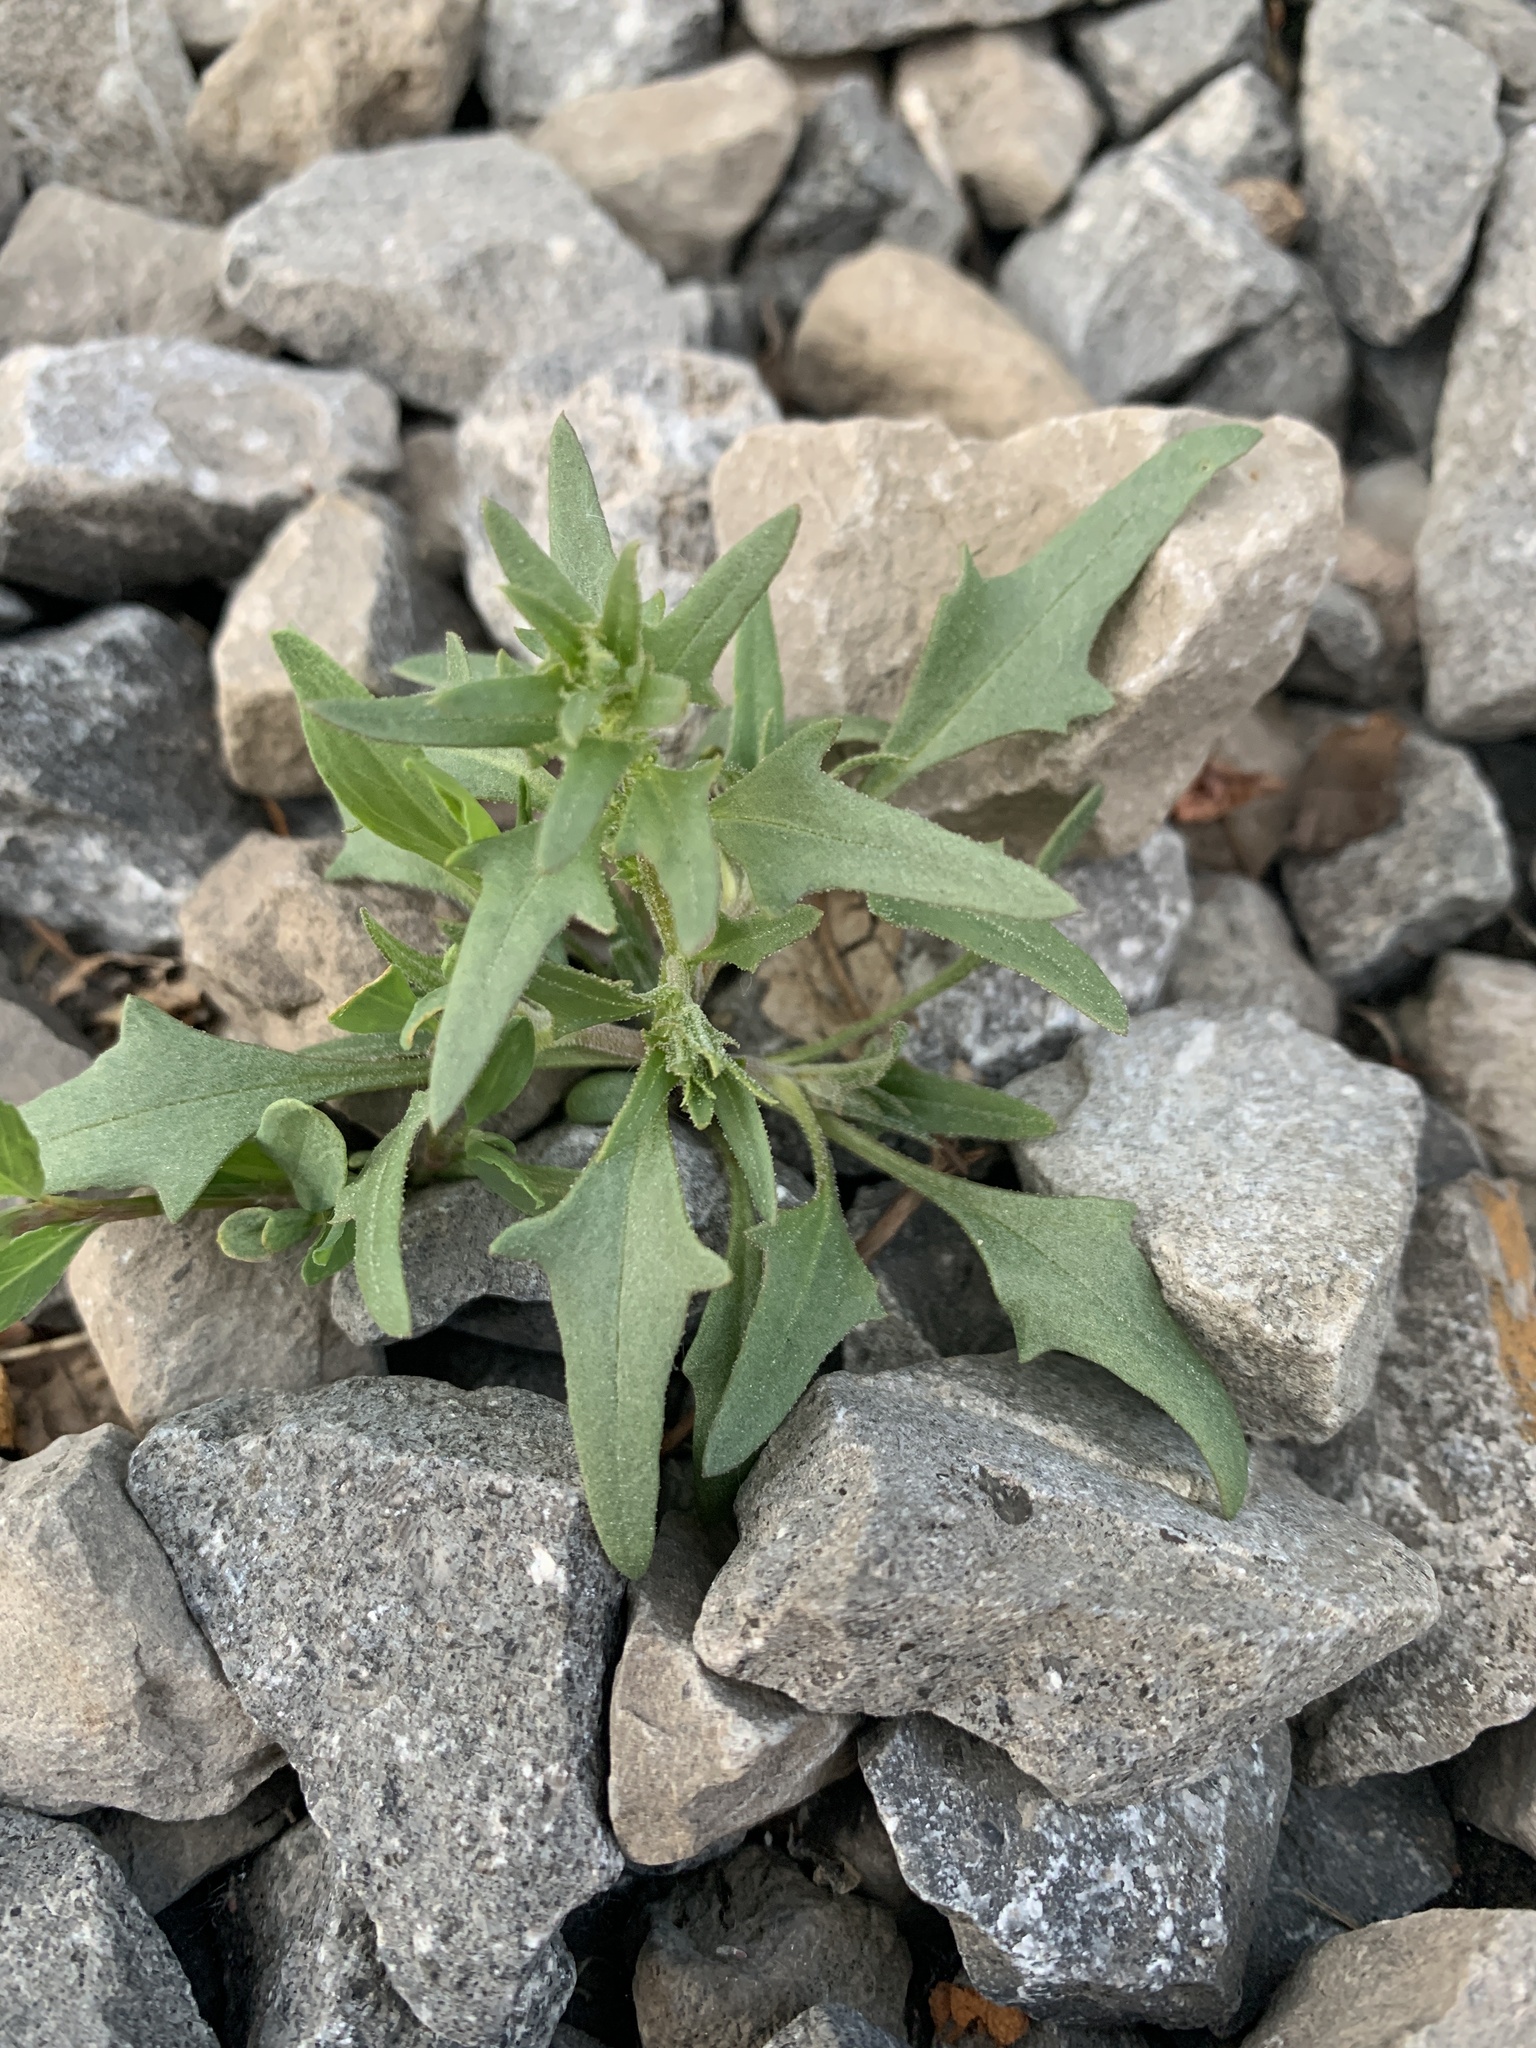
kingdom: Plantae
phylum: Tracheophyta
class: Magnoliopsida
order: Caryophyllales
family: Amaranthaceae
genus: Blitum
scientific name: Blitum nuttallianum
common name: Poverty-weed
